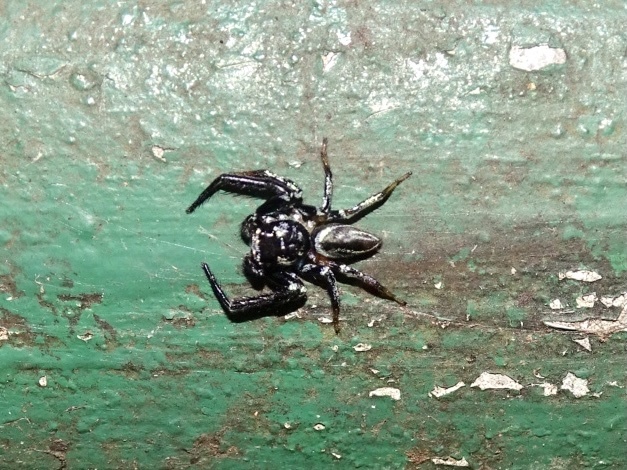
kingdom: Animalia
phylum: Arthropoda
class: Arachnida
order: Araneae
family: Salticidae
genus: Thiania
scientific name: Thiania suboppressa
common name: Jumping spider
